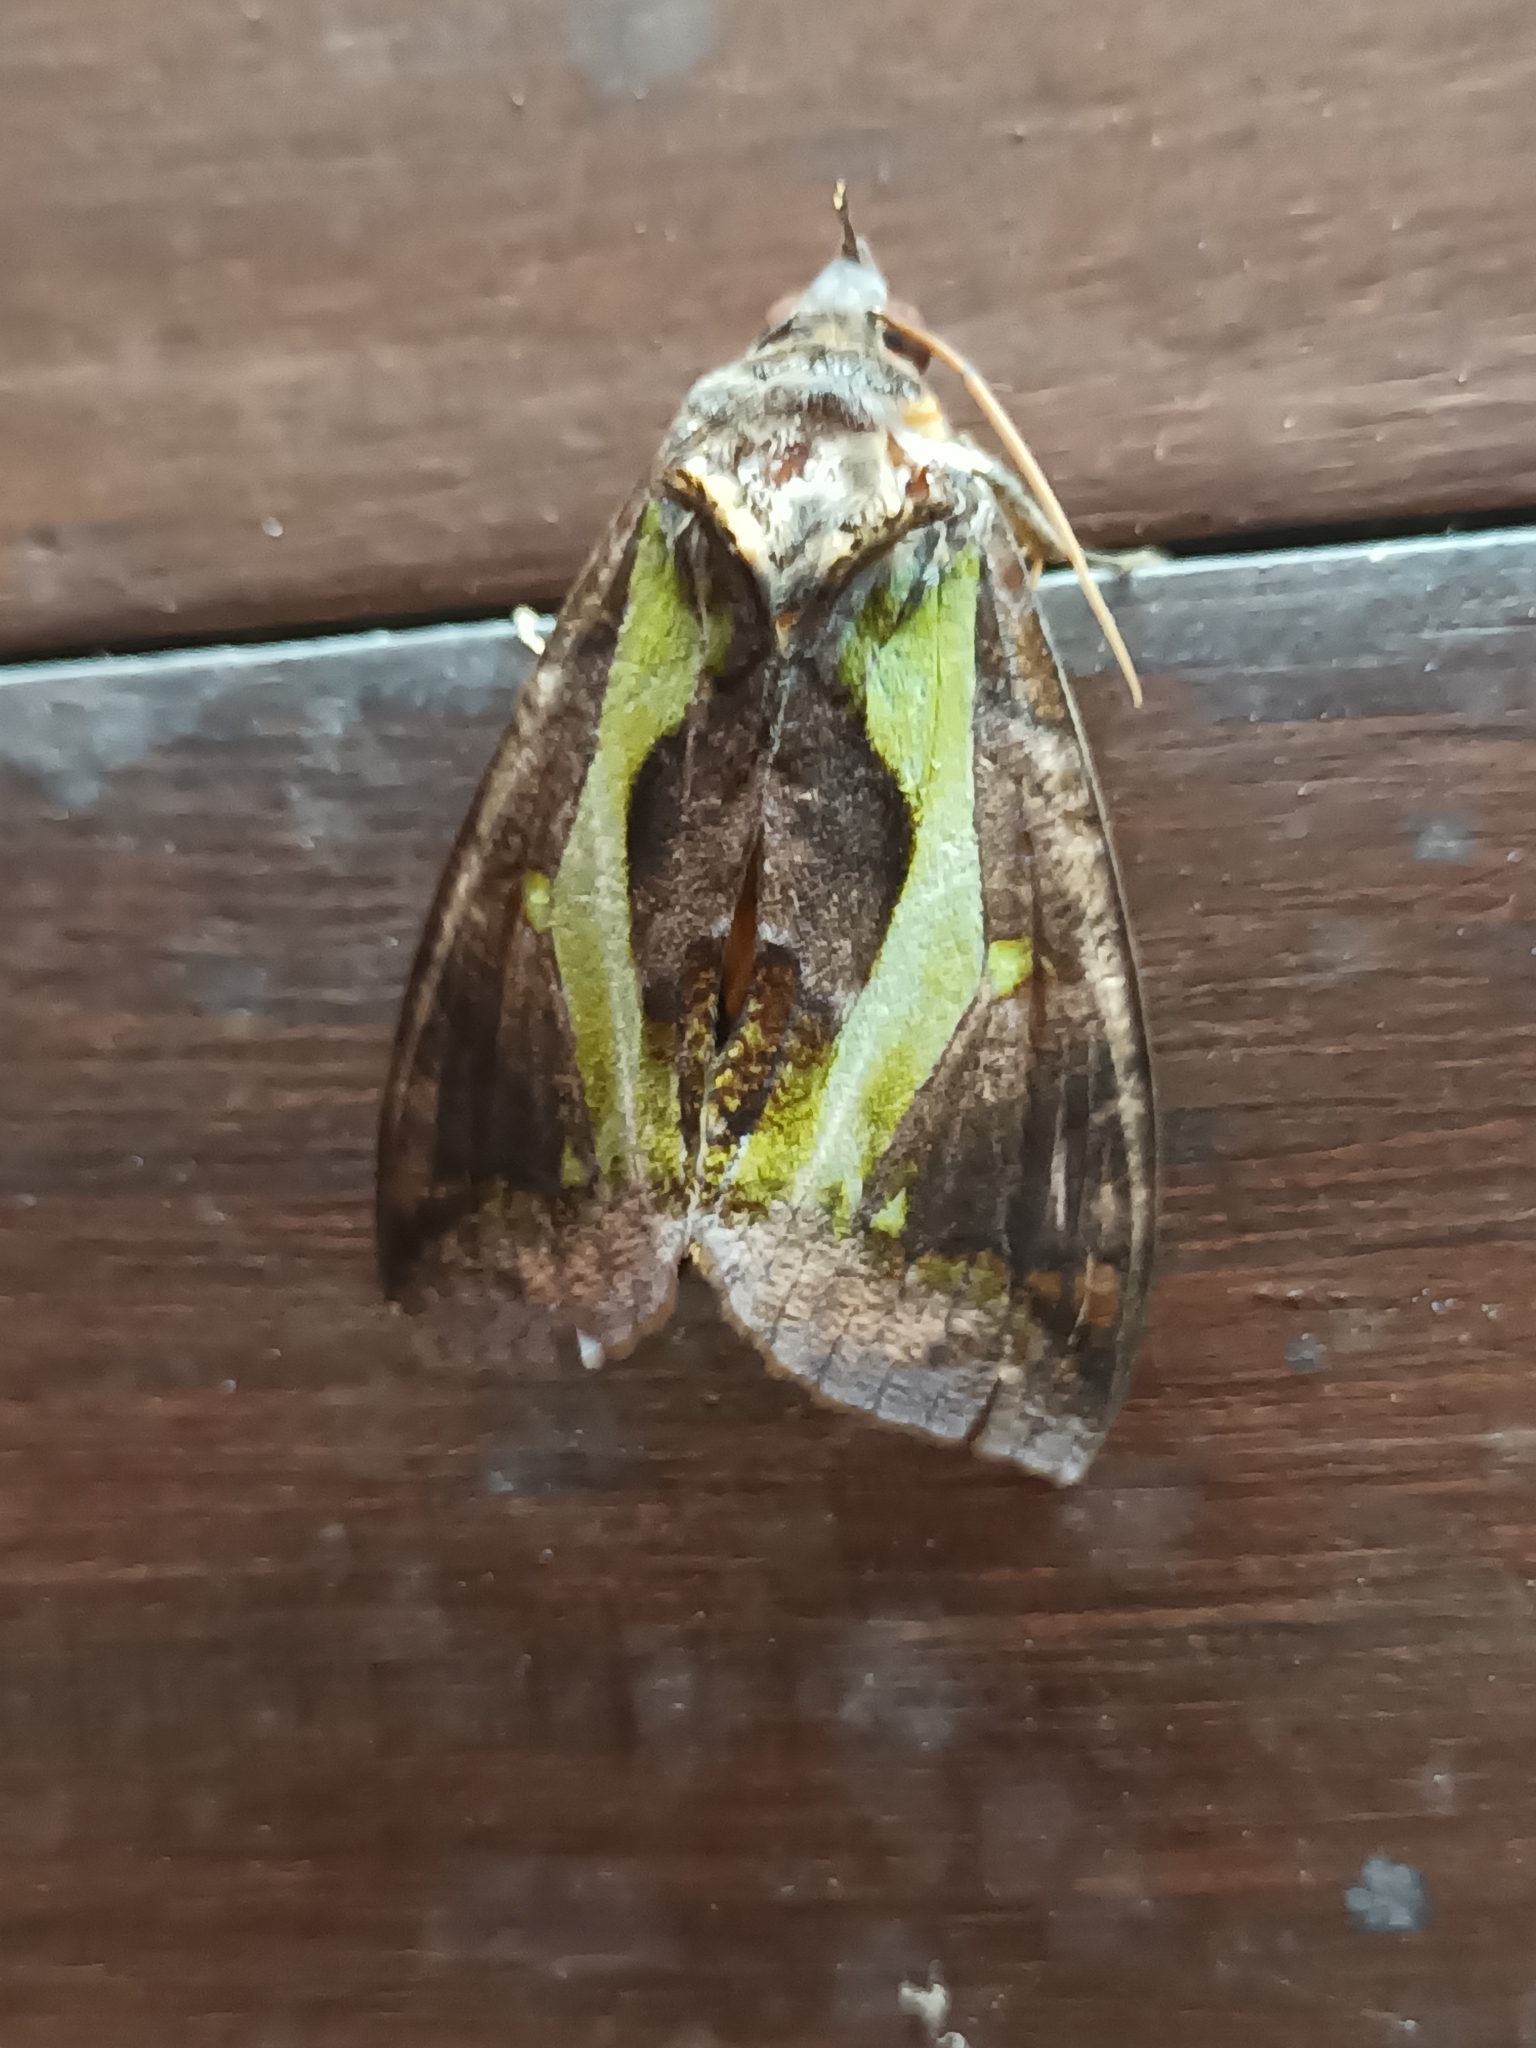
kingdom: Animalia
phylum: Arthropoda
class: Insecta
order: Lepidoptera
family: Erebidae
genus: Eudocima
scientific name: Eudocima homaena
